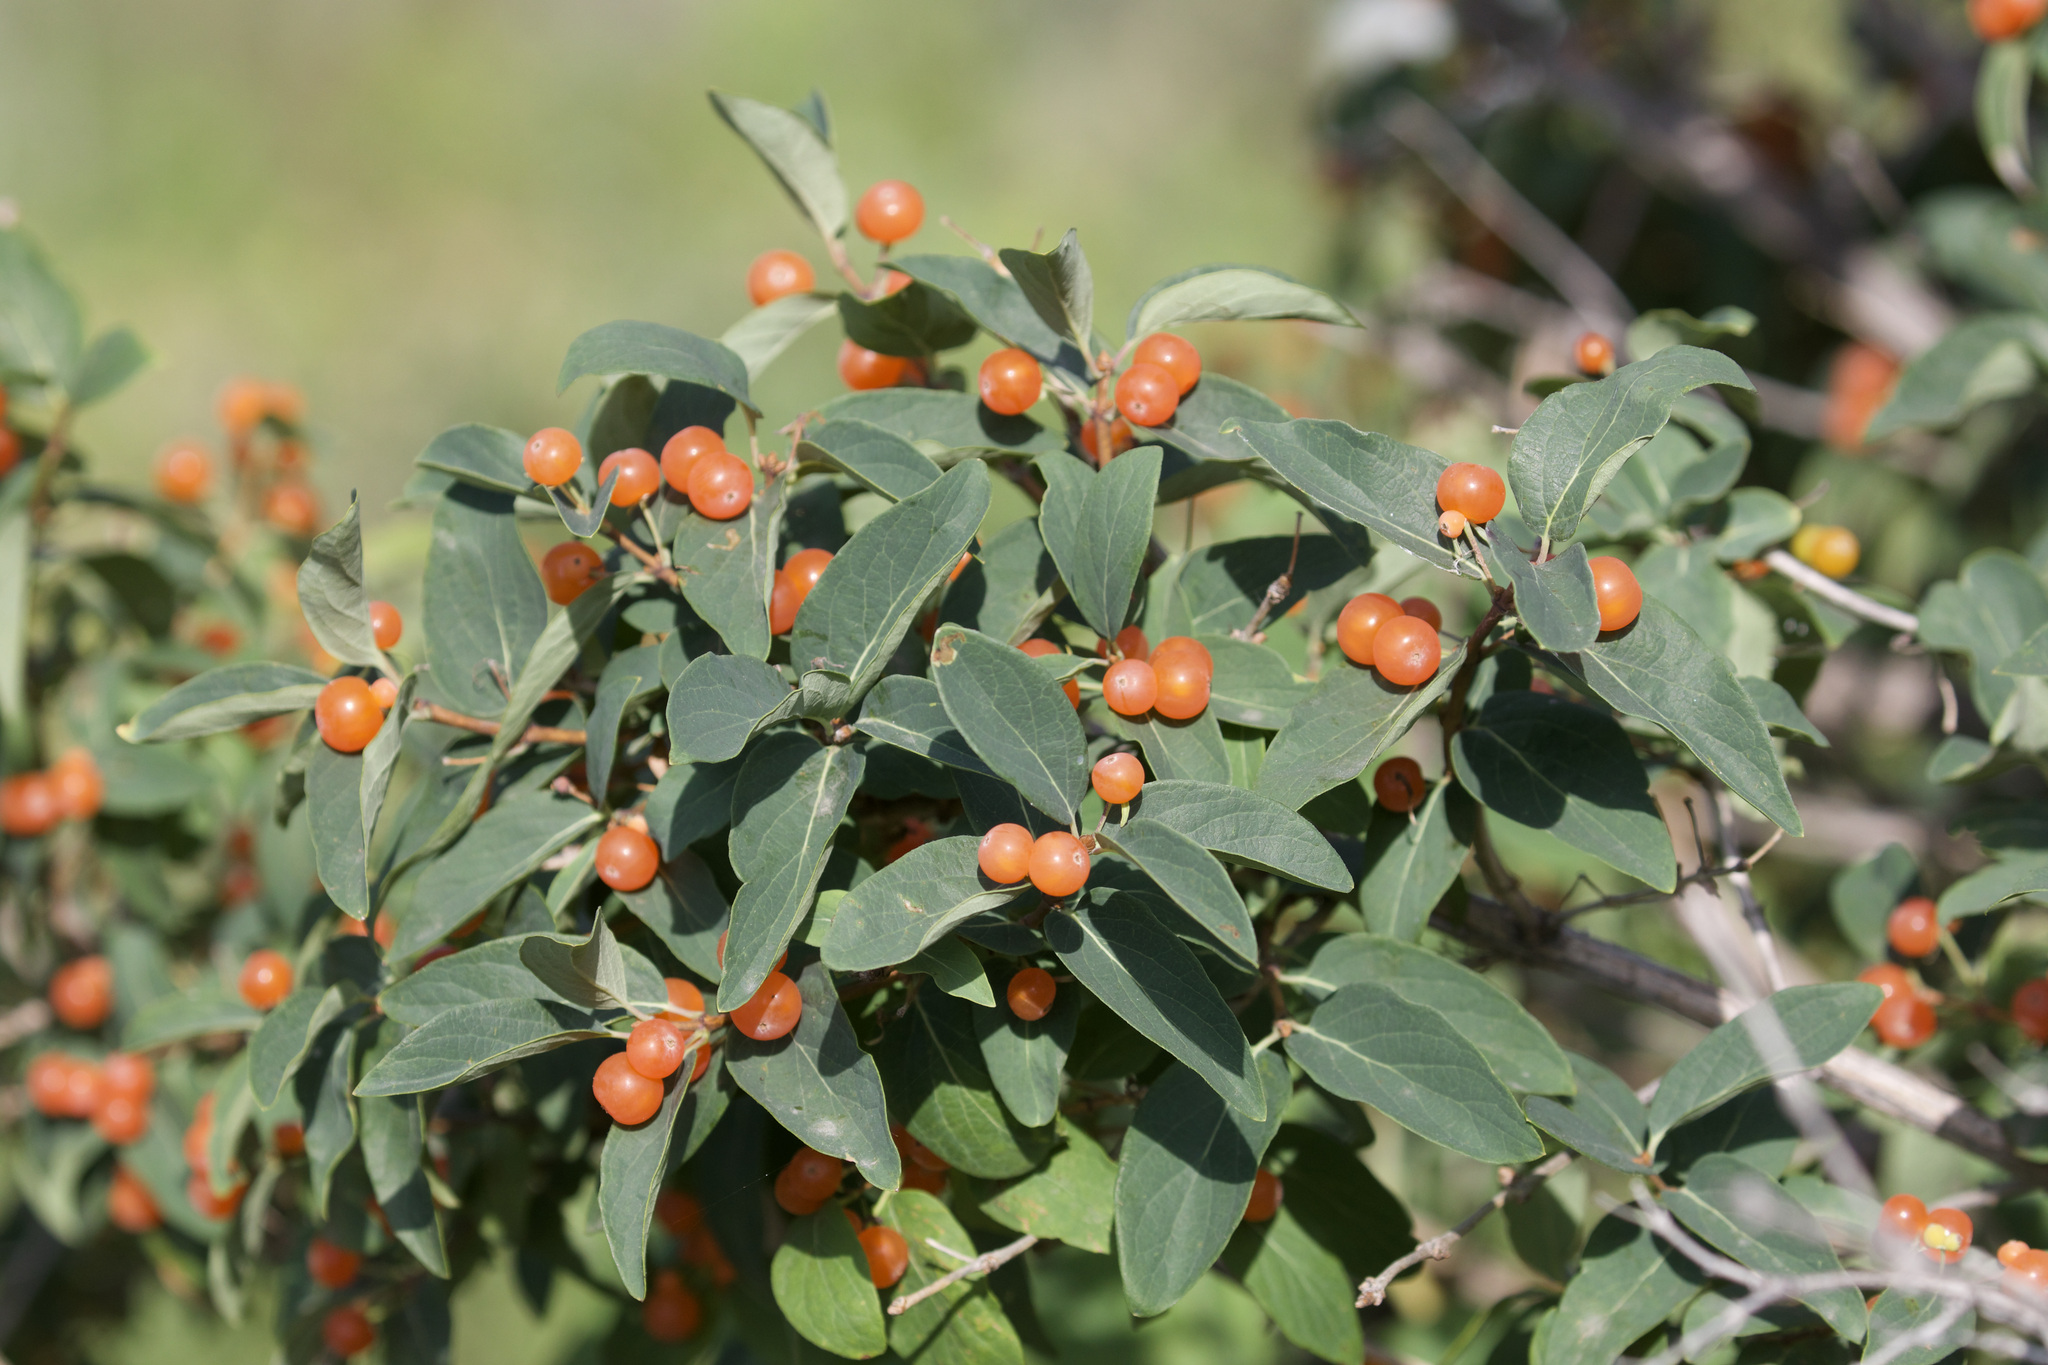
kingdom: Plantae
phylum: Tracheophyta
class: Magnoliopsida
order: Dipsacales
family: Caprifoliaceae
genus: Lonicera
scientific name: Lonicera tatarica
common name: Tatarian honeysuckle
